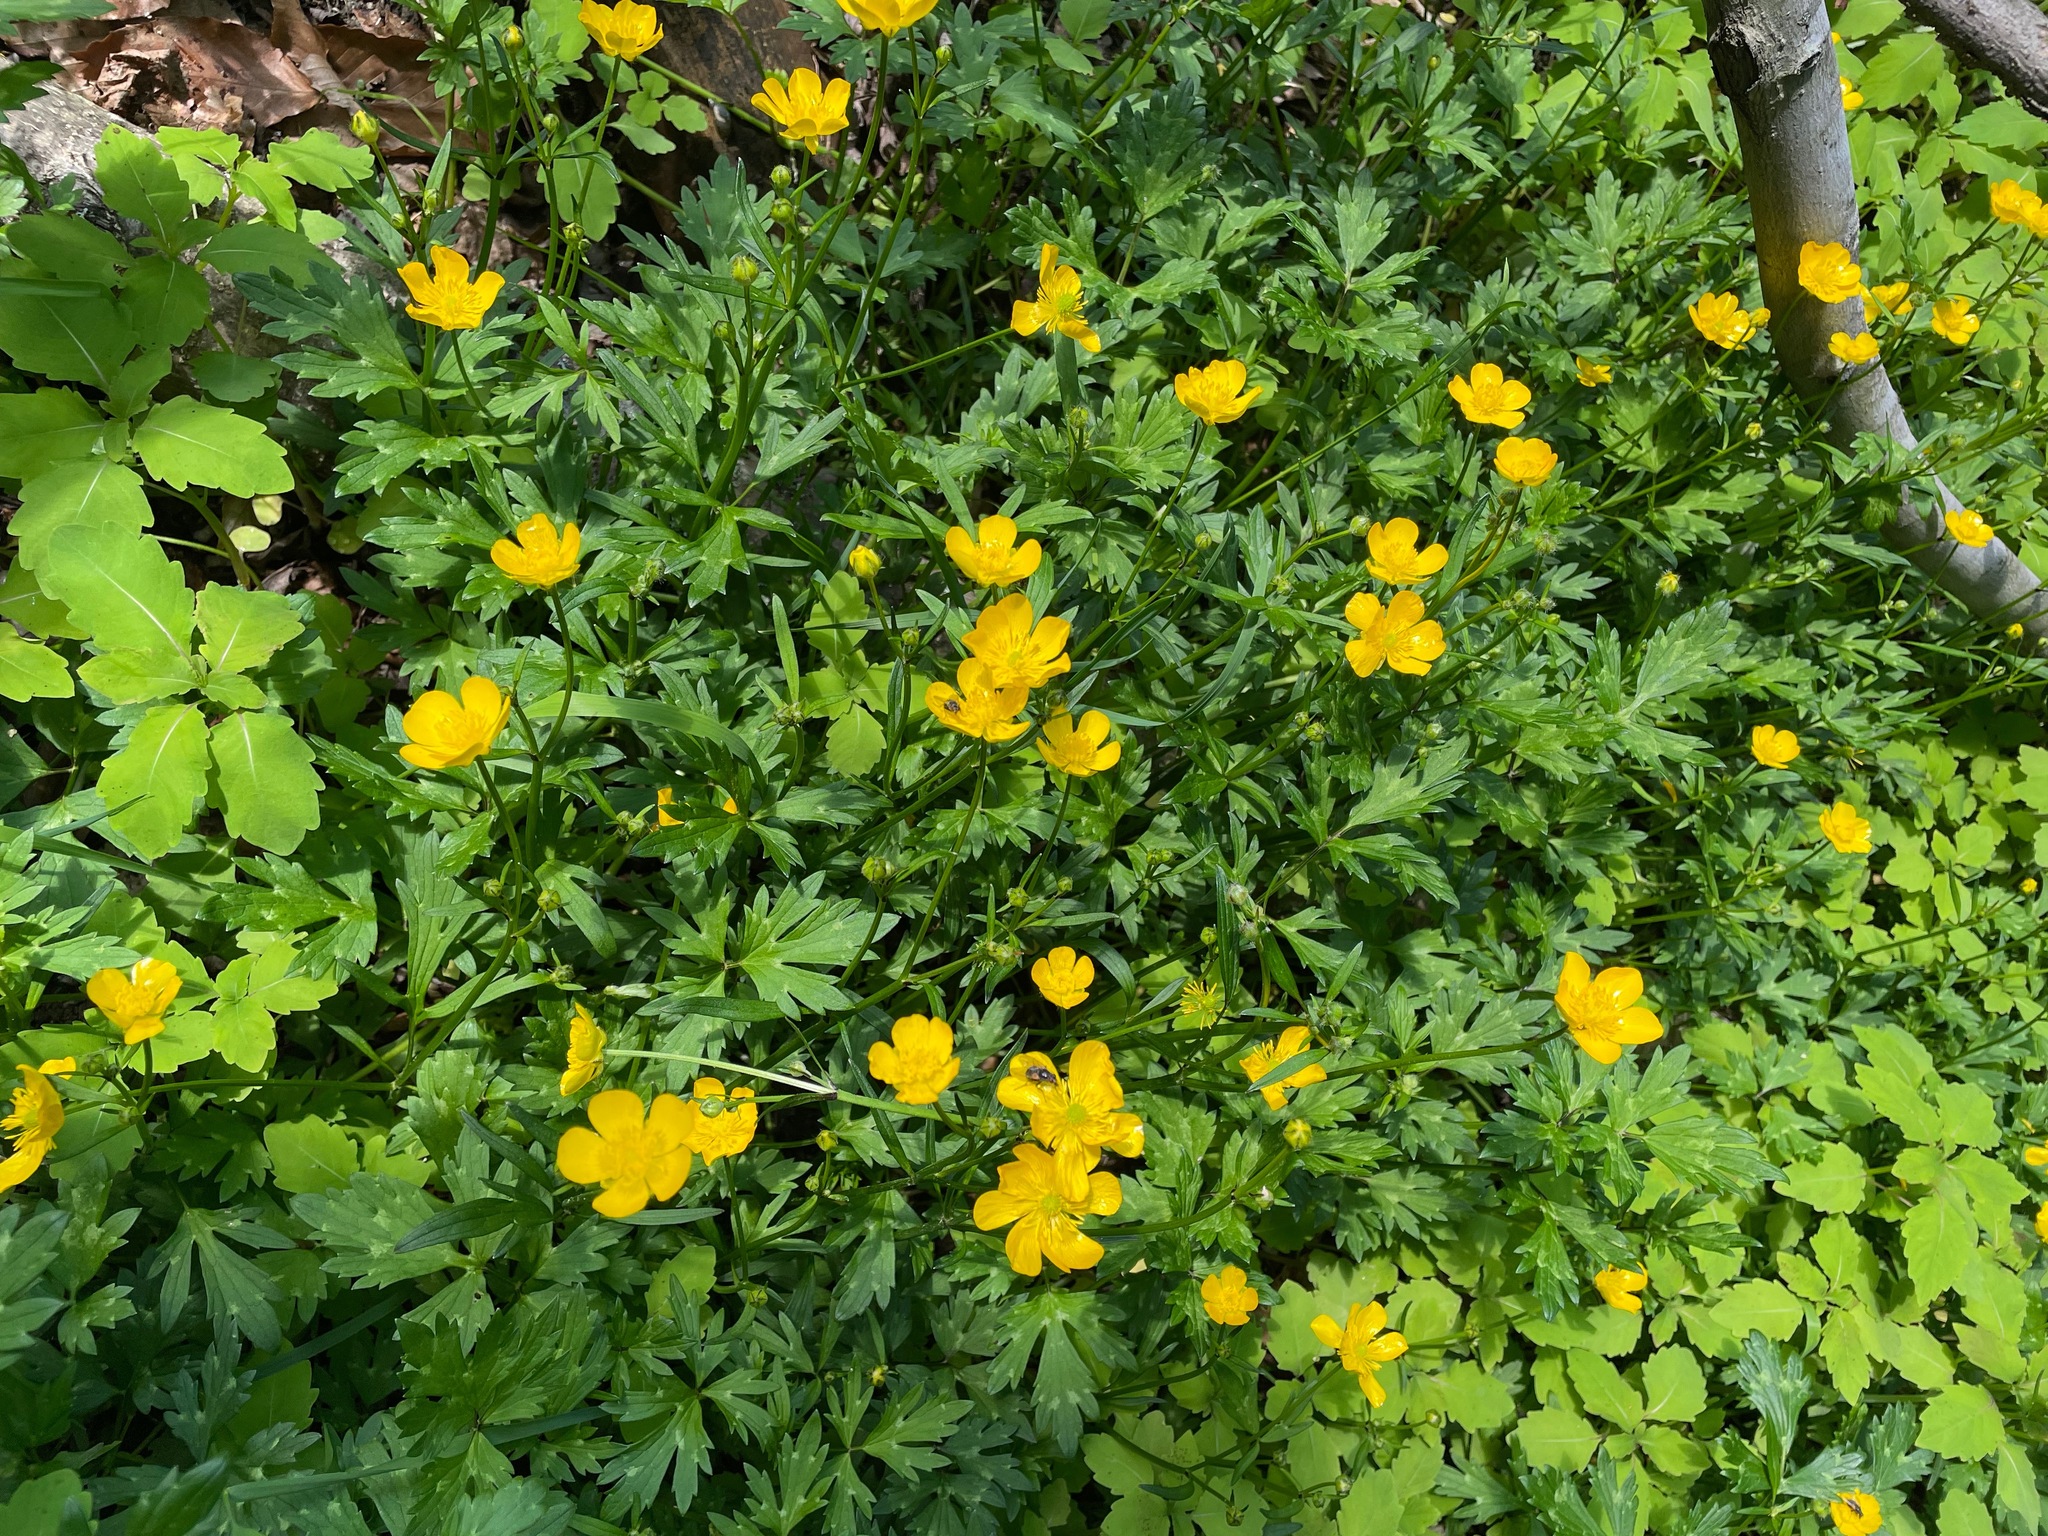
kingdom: Plantae
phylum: Tracheophyta
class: Magnoliopsida
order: Ranunculales
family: Ranunculaceae
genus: Ranunculus
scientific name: Ranunculus repens
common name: Creeping buttercup
